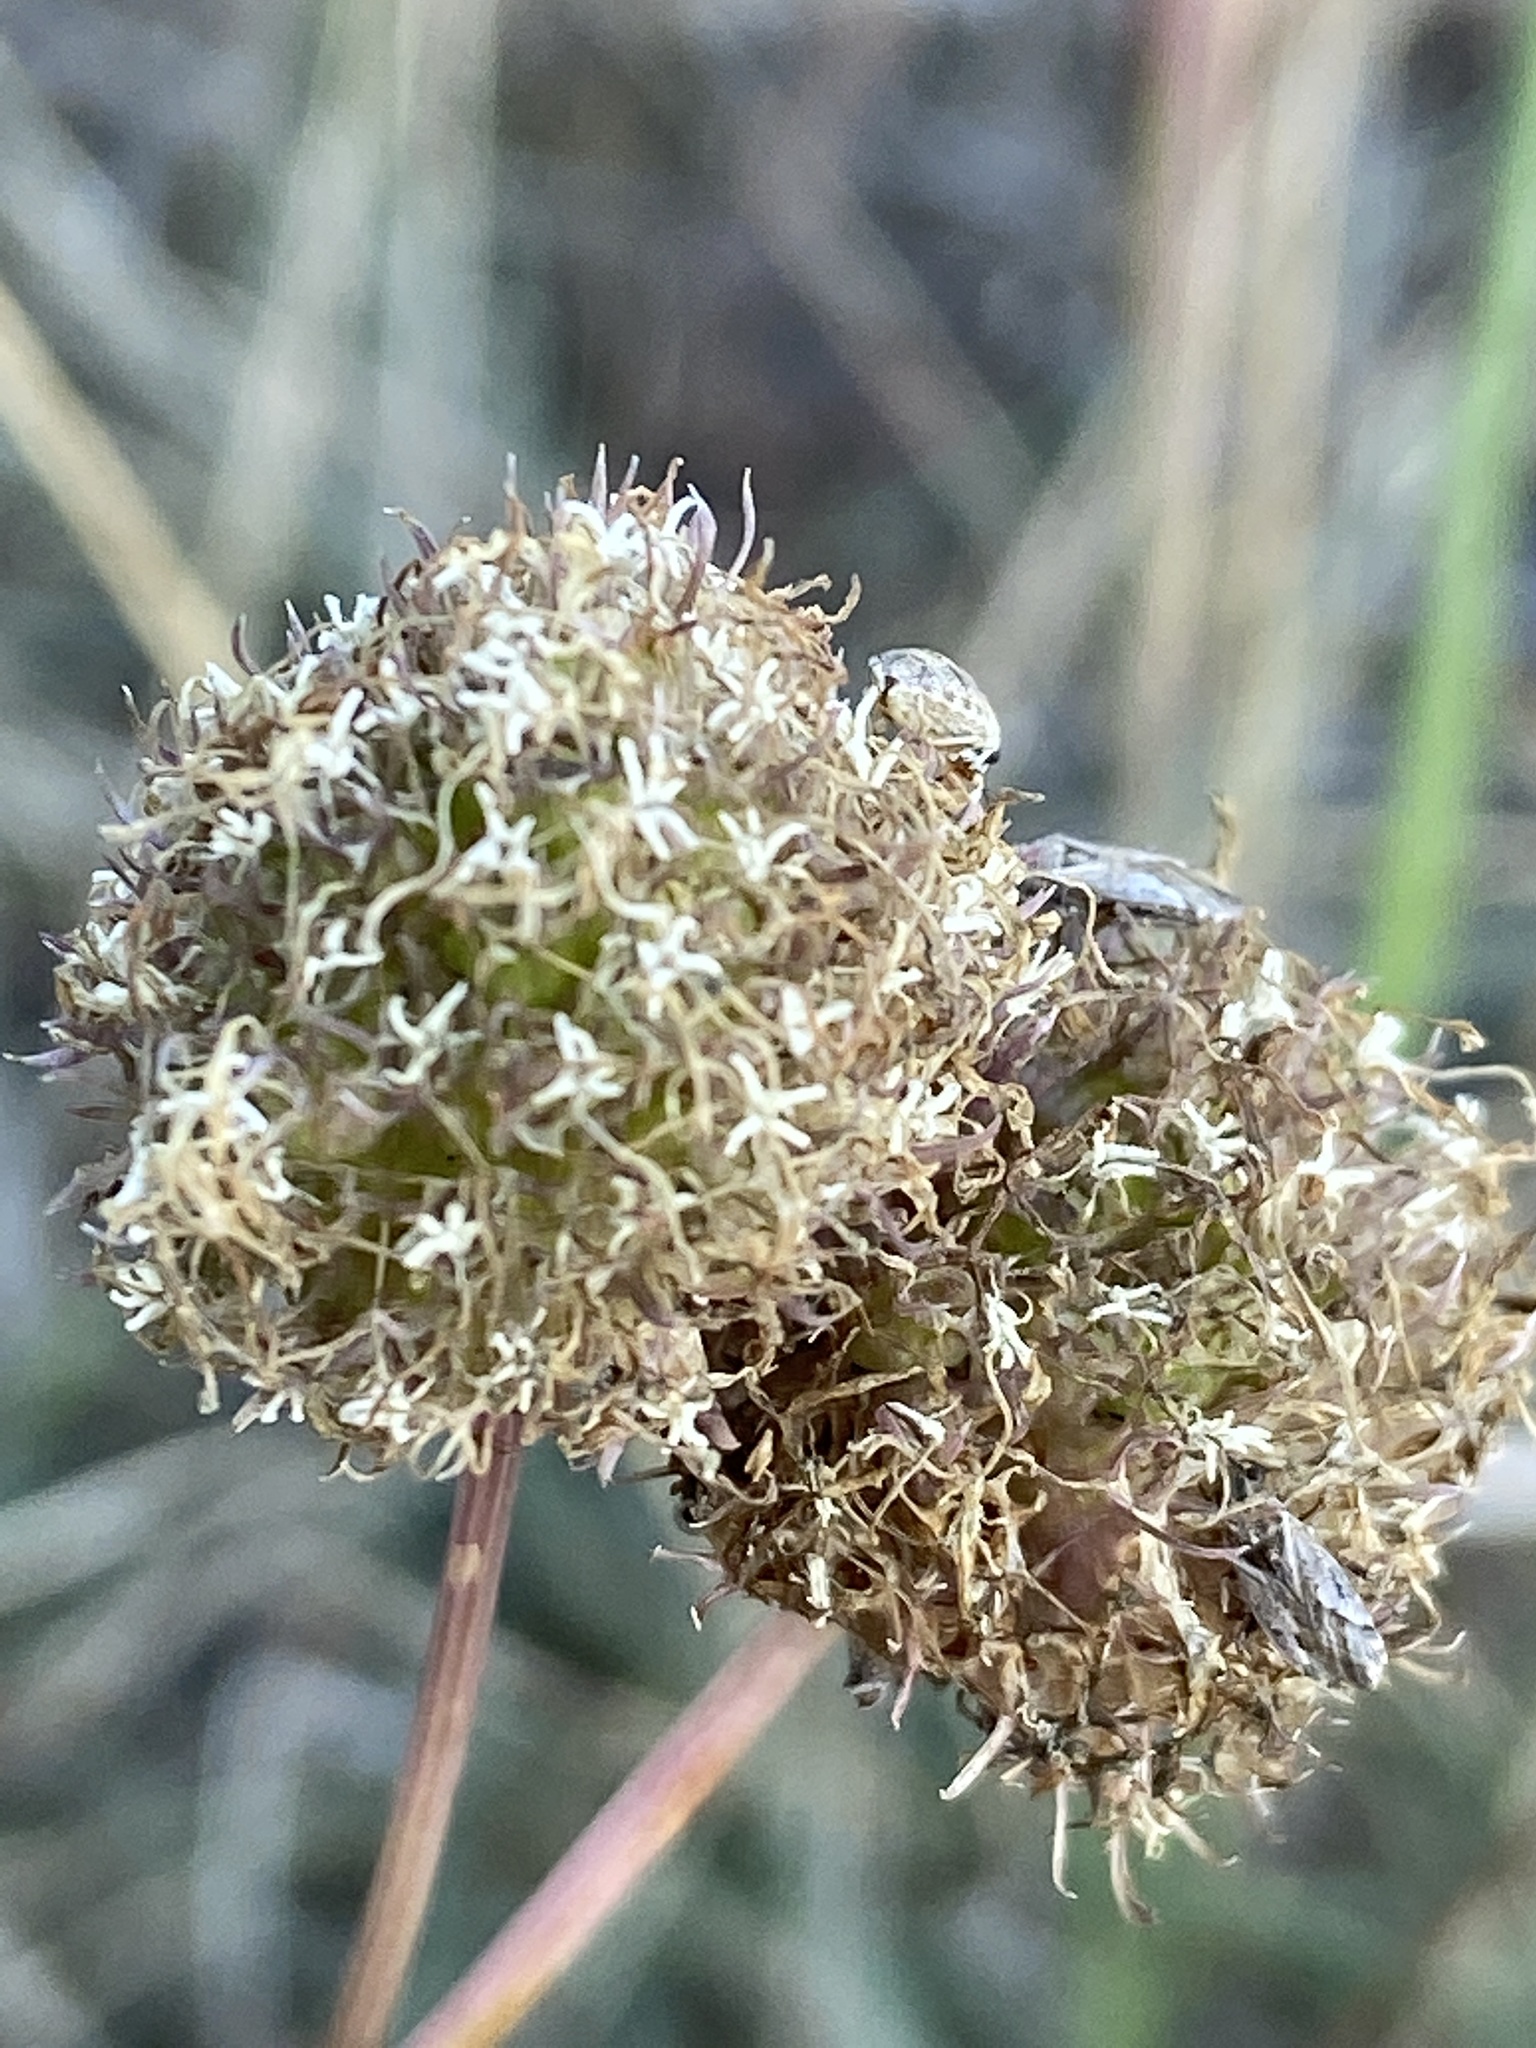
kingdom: Plantae
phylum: Tracheophyta
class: Magnoliopsida
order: Asterales
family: Campanulaceae
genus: Jasione
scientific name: Jasione montana
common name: Sheep's-bit
